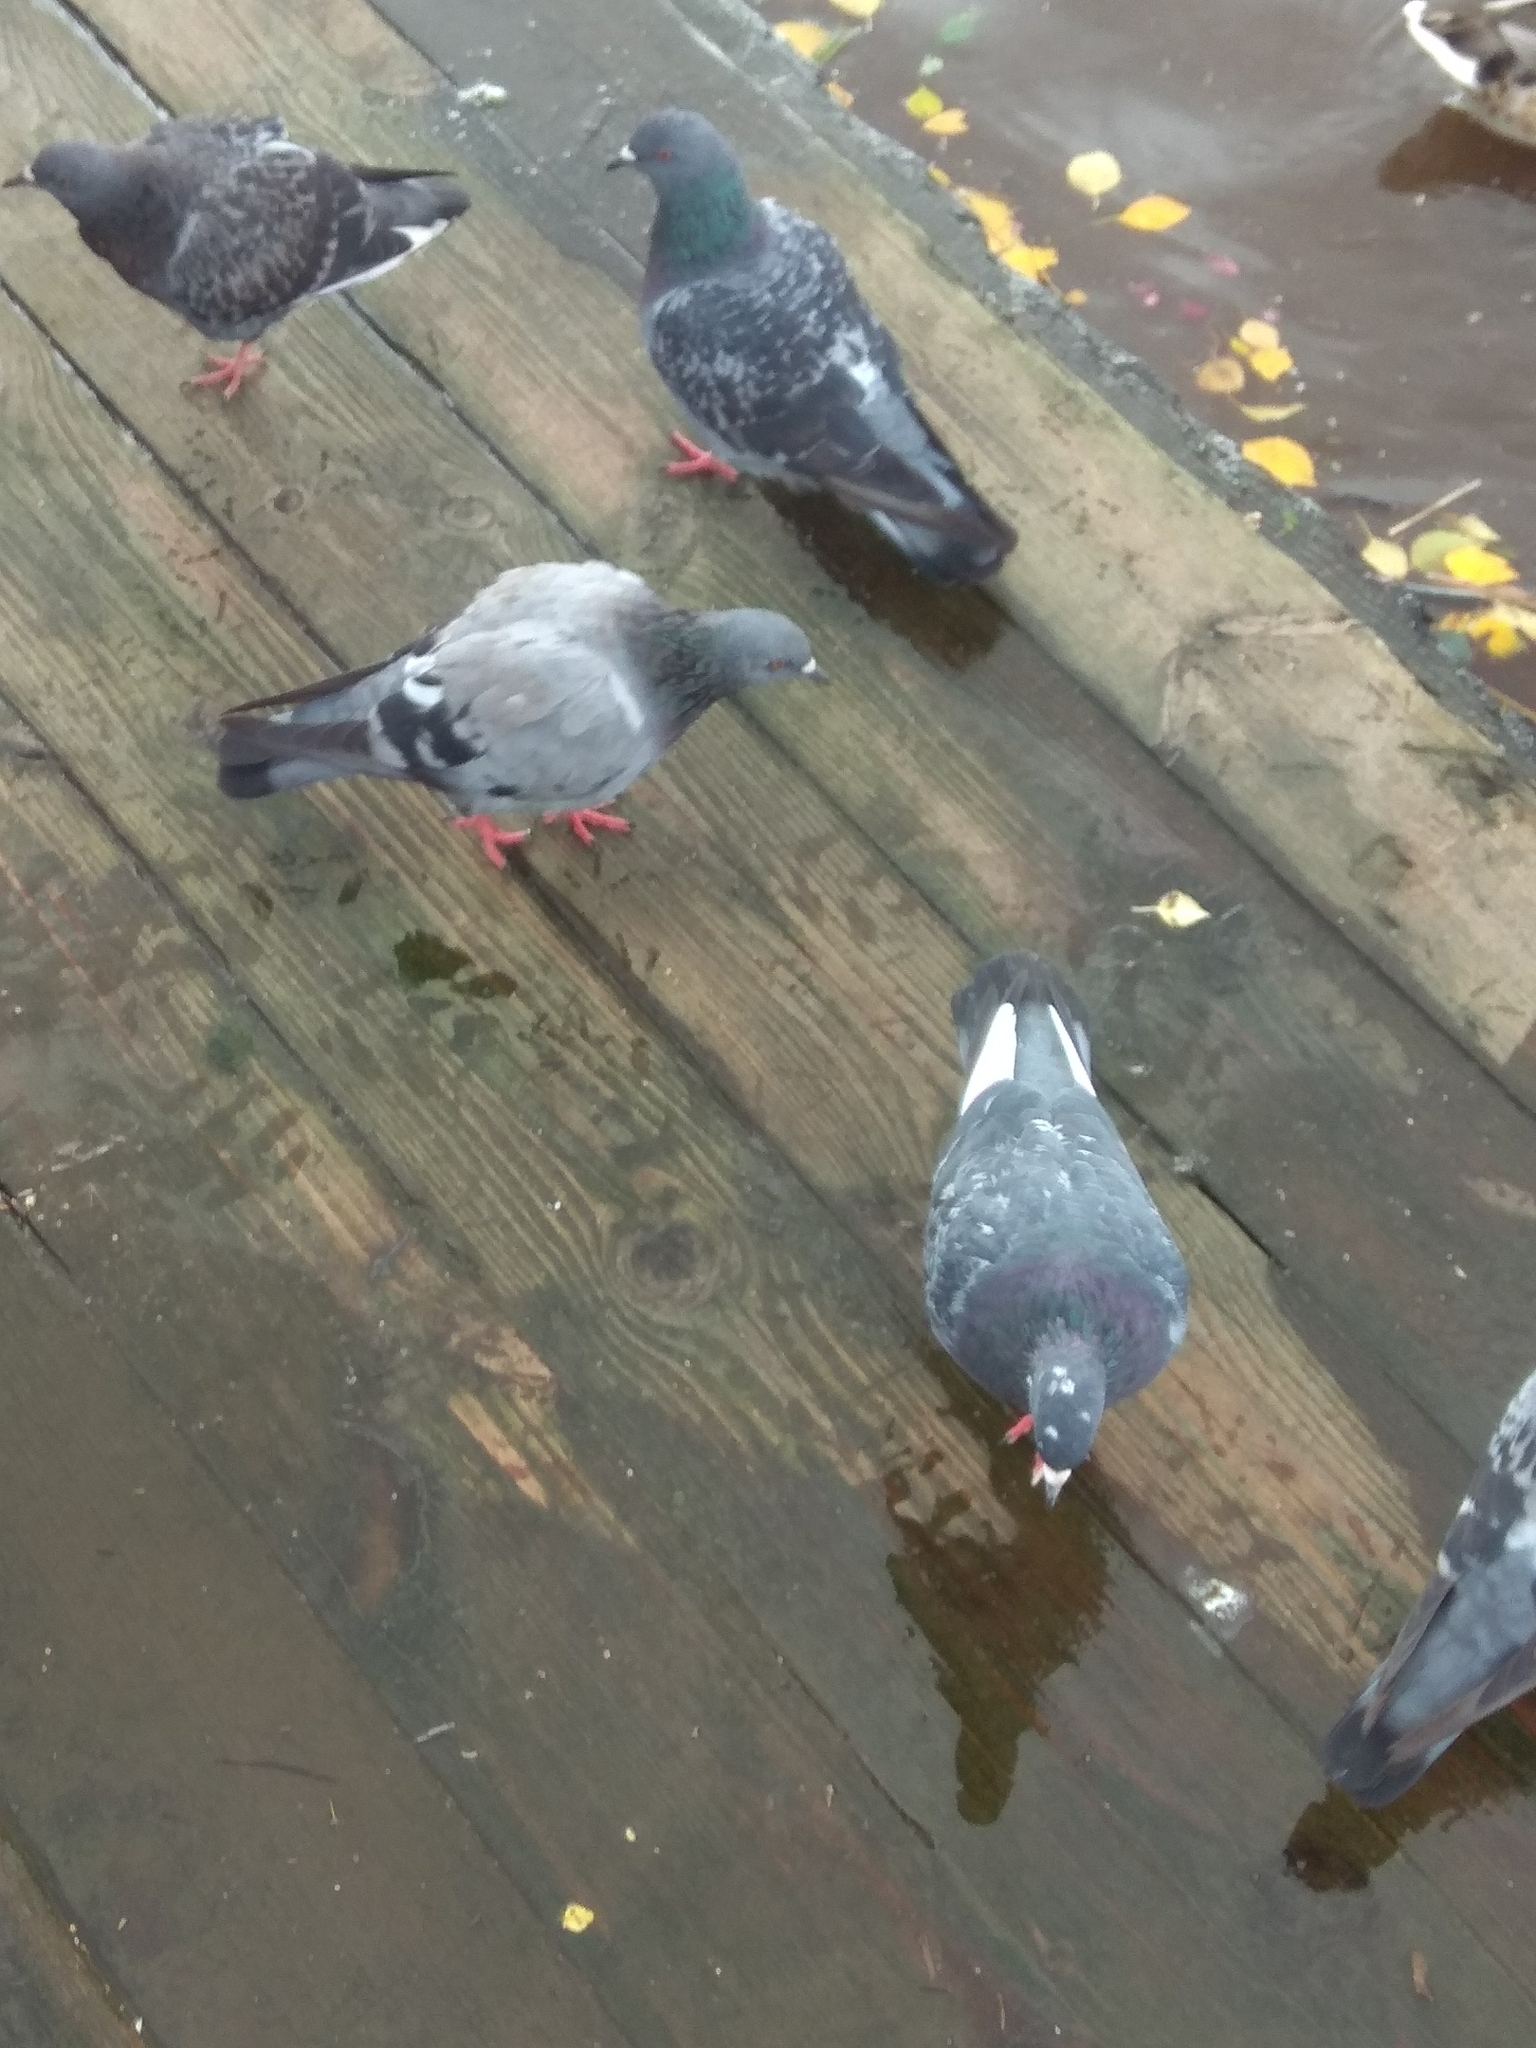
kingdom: Animalia
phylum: Chordata
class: Aves
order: Columbiformes
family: Columbidae
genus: Columba
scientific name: Columba livia
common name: Rock pigeon
